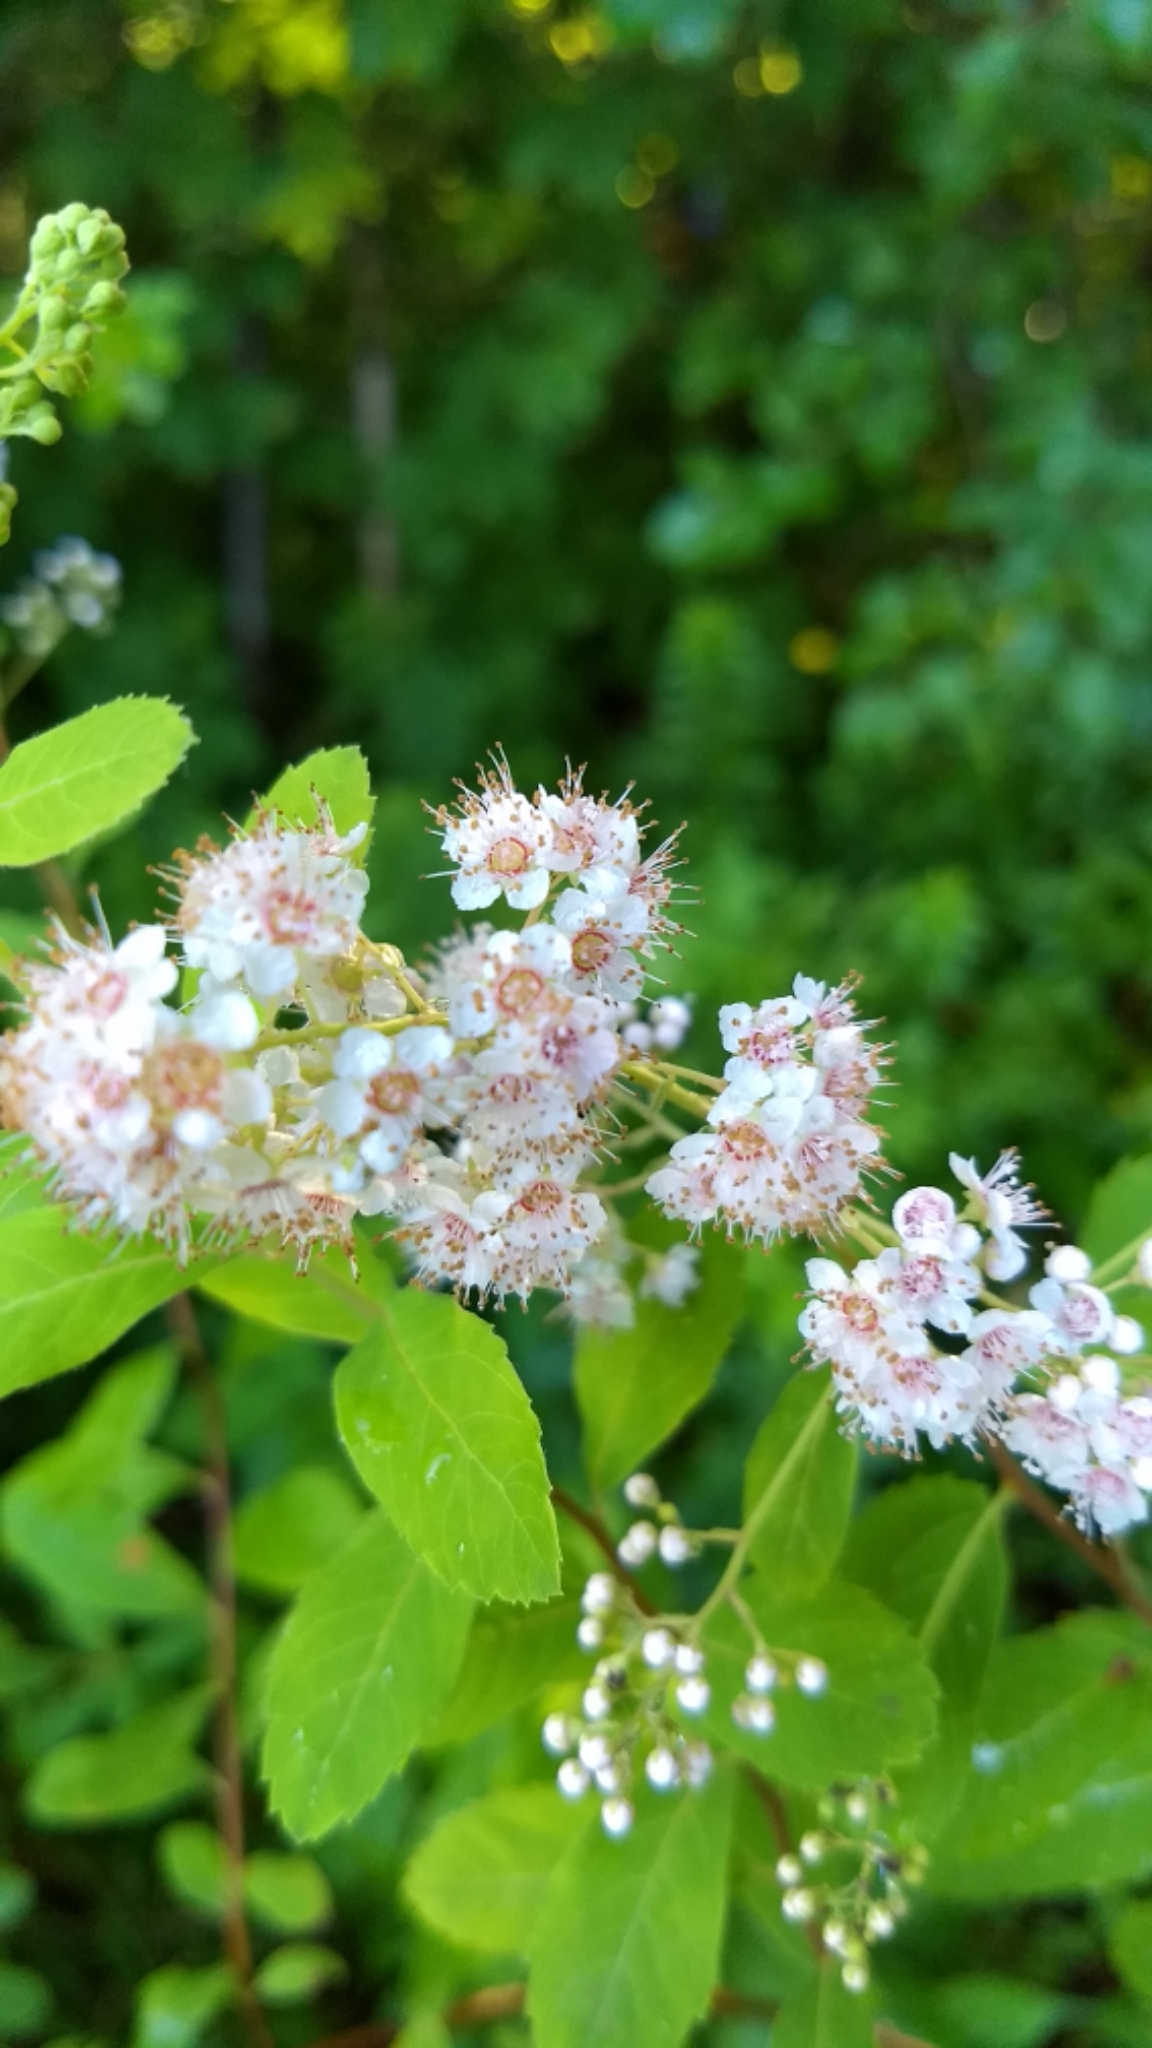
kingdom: Plantae
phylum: Tracheophyta
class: Magnoliopsida
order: Rosales
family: Rosaceae
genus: Spiraea
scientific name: Spiraea alba
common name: Pale bridewort
